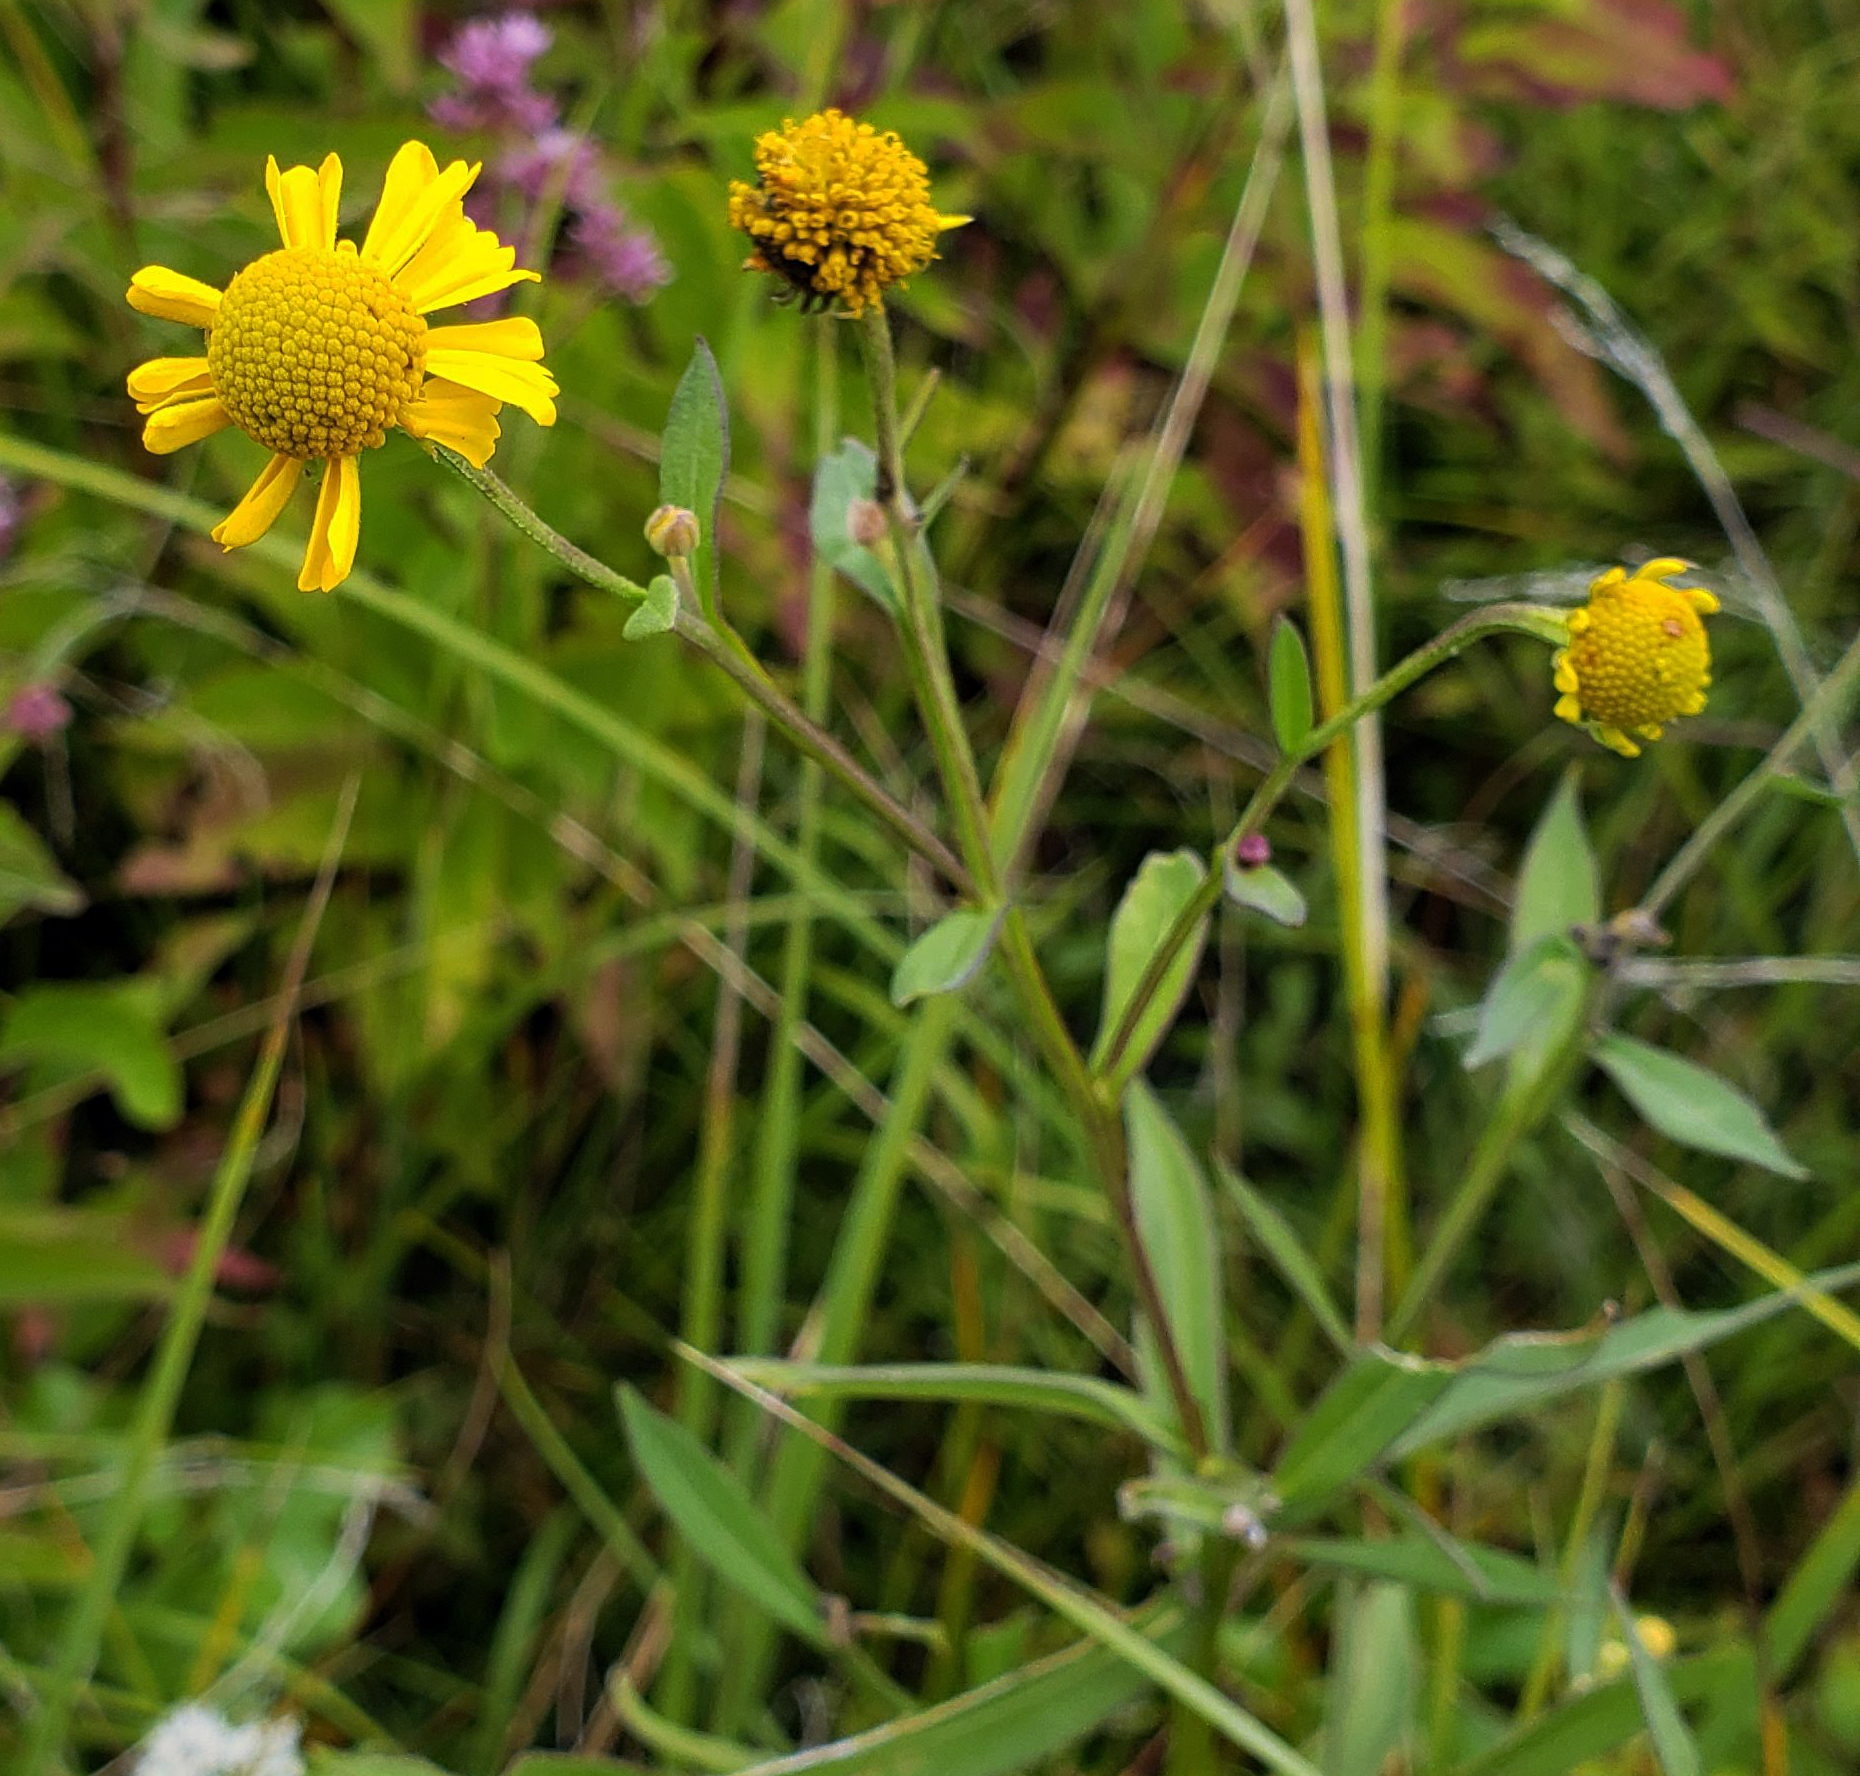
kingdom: Plantae
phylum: Tracheophyta
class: Magnoliopsida
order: Asterales
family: Asteraceae
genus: Helenium
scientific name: Helenium autumnale
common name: Sneezeweed
